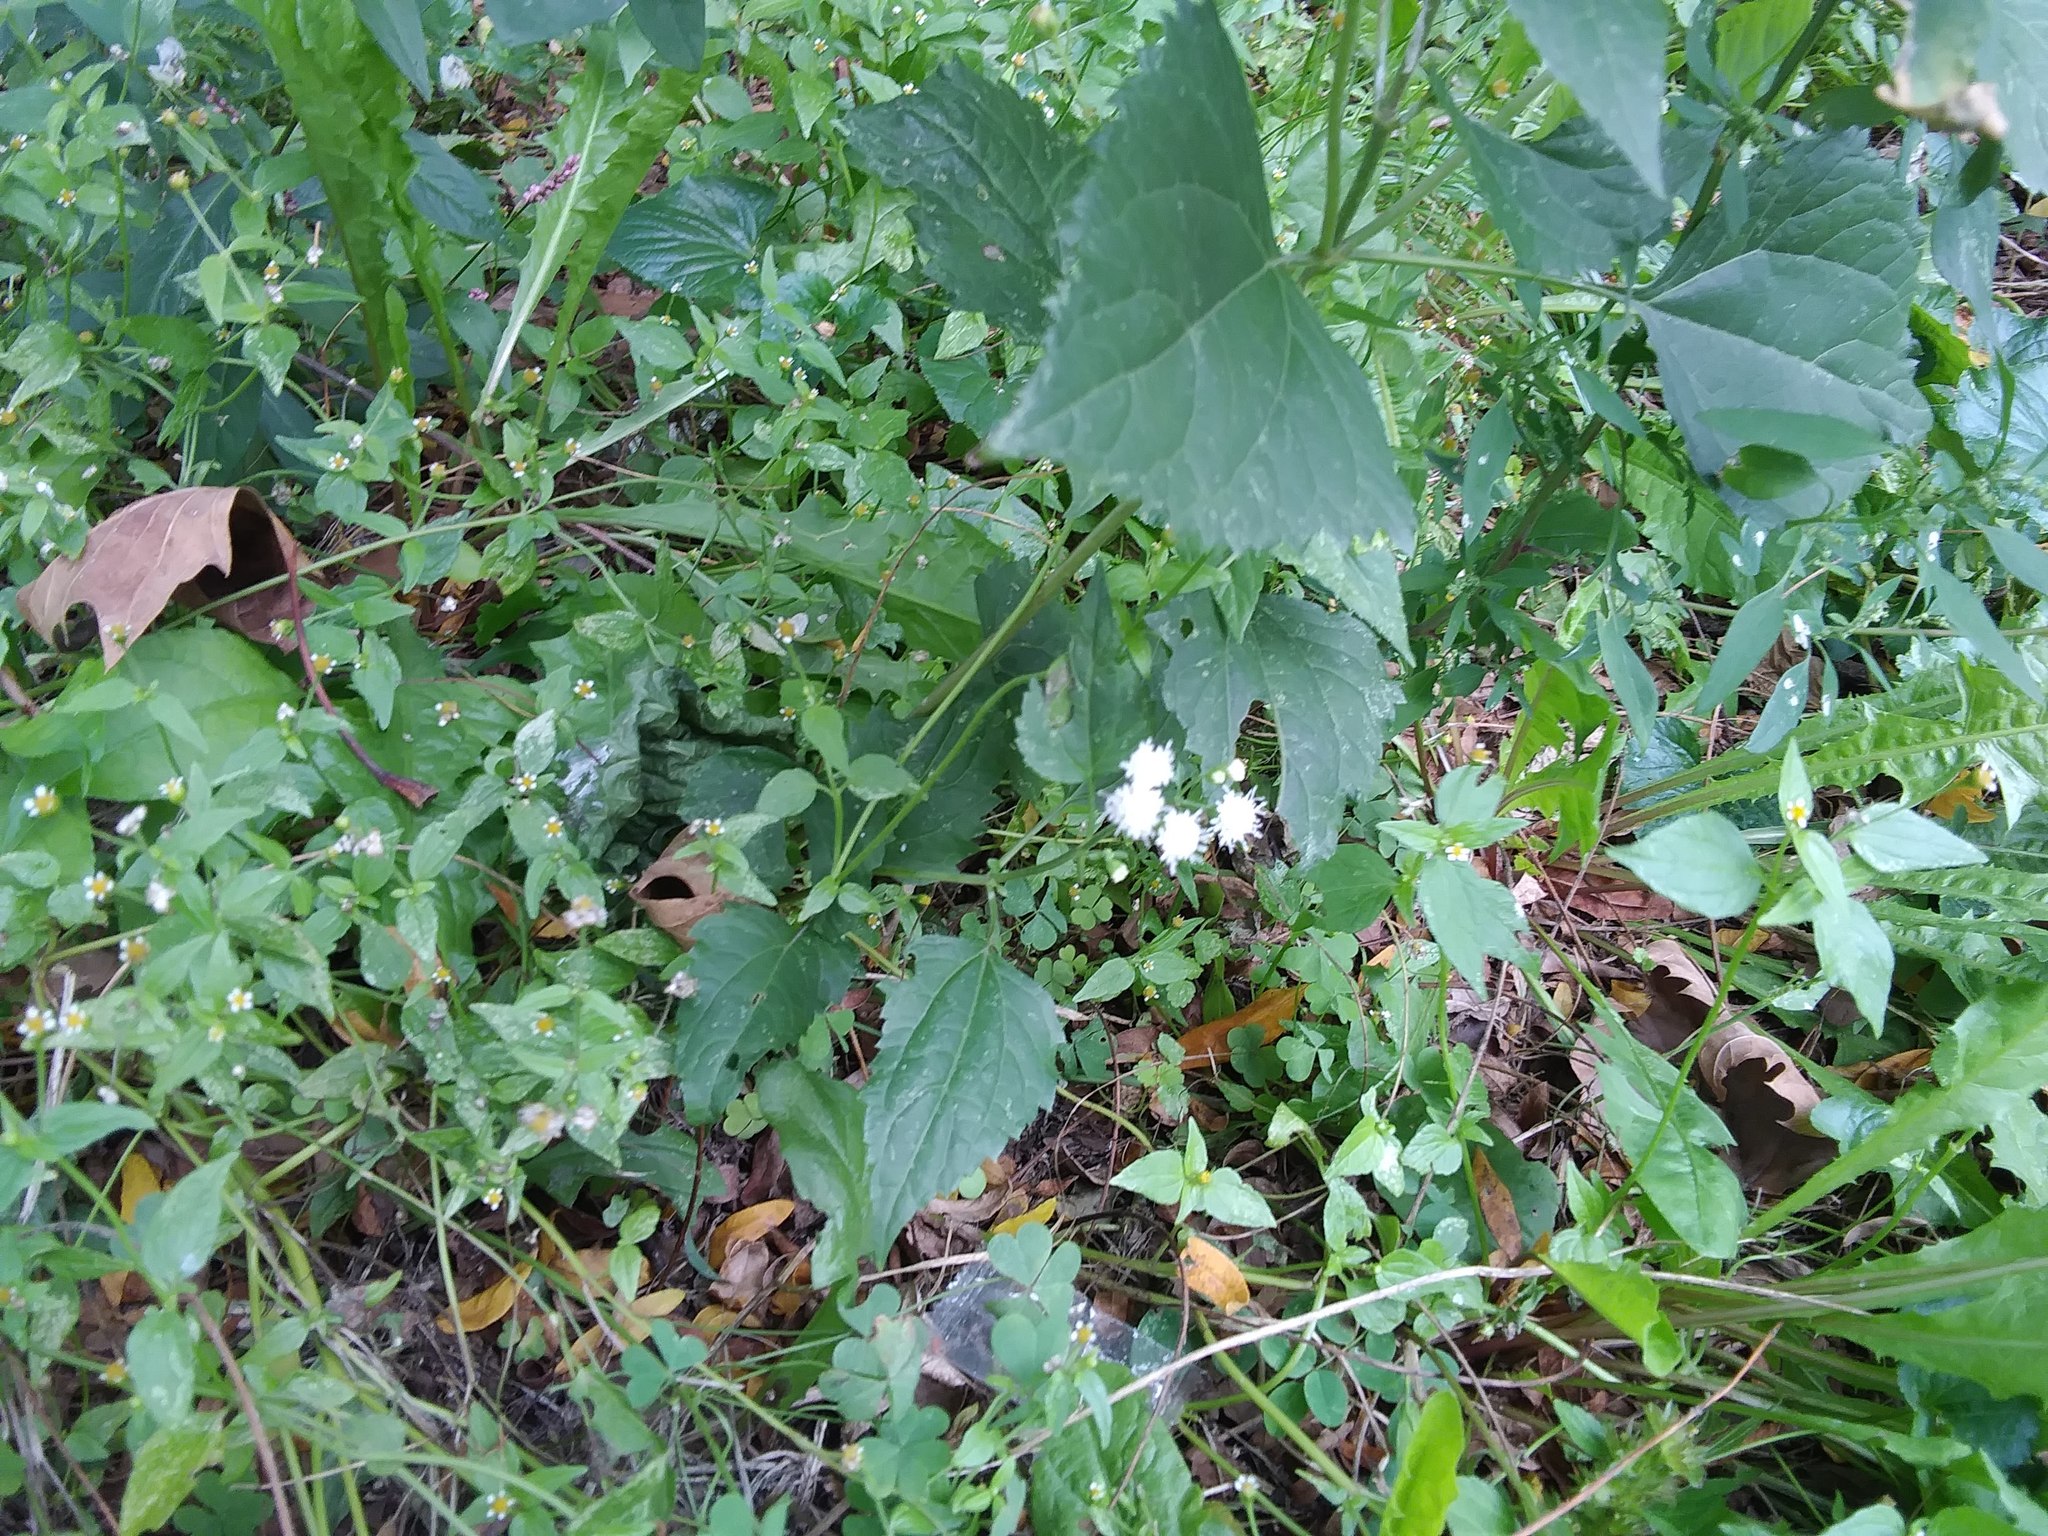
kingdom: Plantae
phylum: Tracheophyta
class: Magnoliopsida
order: Asterales
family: Asteraceae
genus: Ageratina
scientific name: Ageratina altissima
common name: White snakeroot
